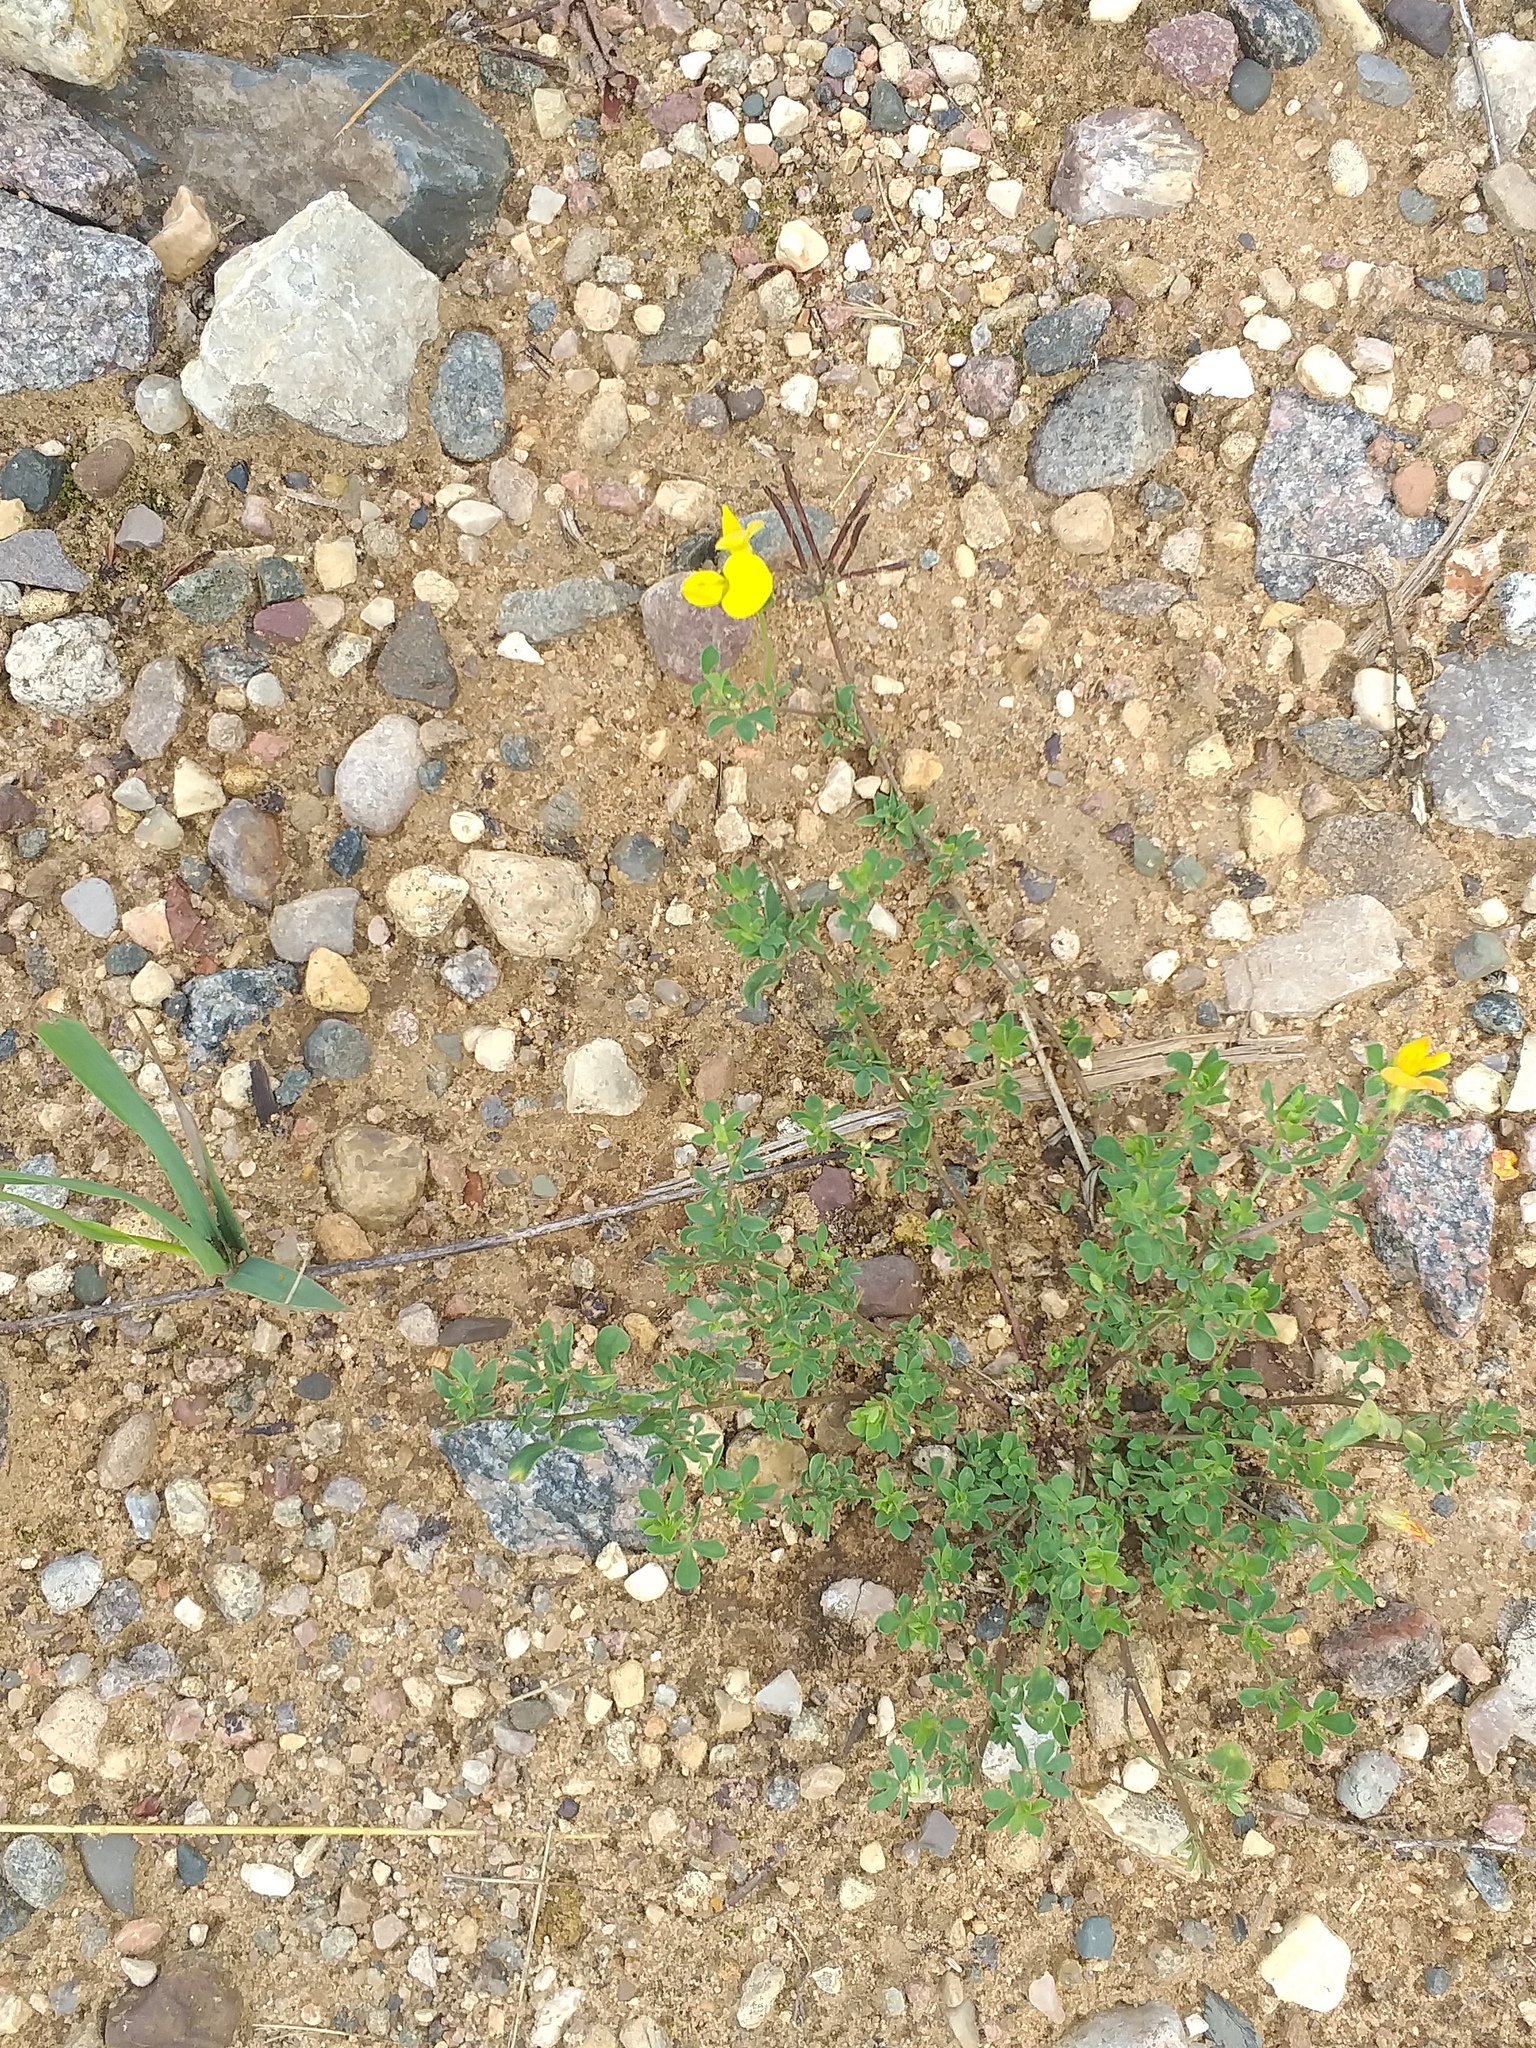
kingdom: Plantae
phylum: Tracheophyta
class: Magnoliopsida
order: Fabales
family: Fabaceae
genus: Lotus
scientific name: Lotus corniculatus
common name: Common bird's-foot-trefoil
